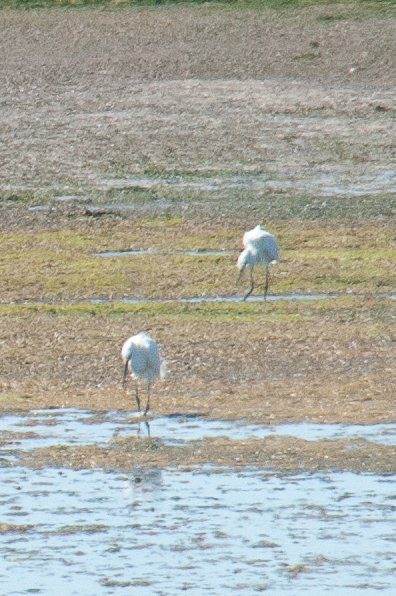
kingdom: Animalia
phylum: Chordata
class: Aves
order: Pelecaniformes
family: Ardeidae
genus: Egretta
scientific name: Egretta thula
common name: Snowy egret
